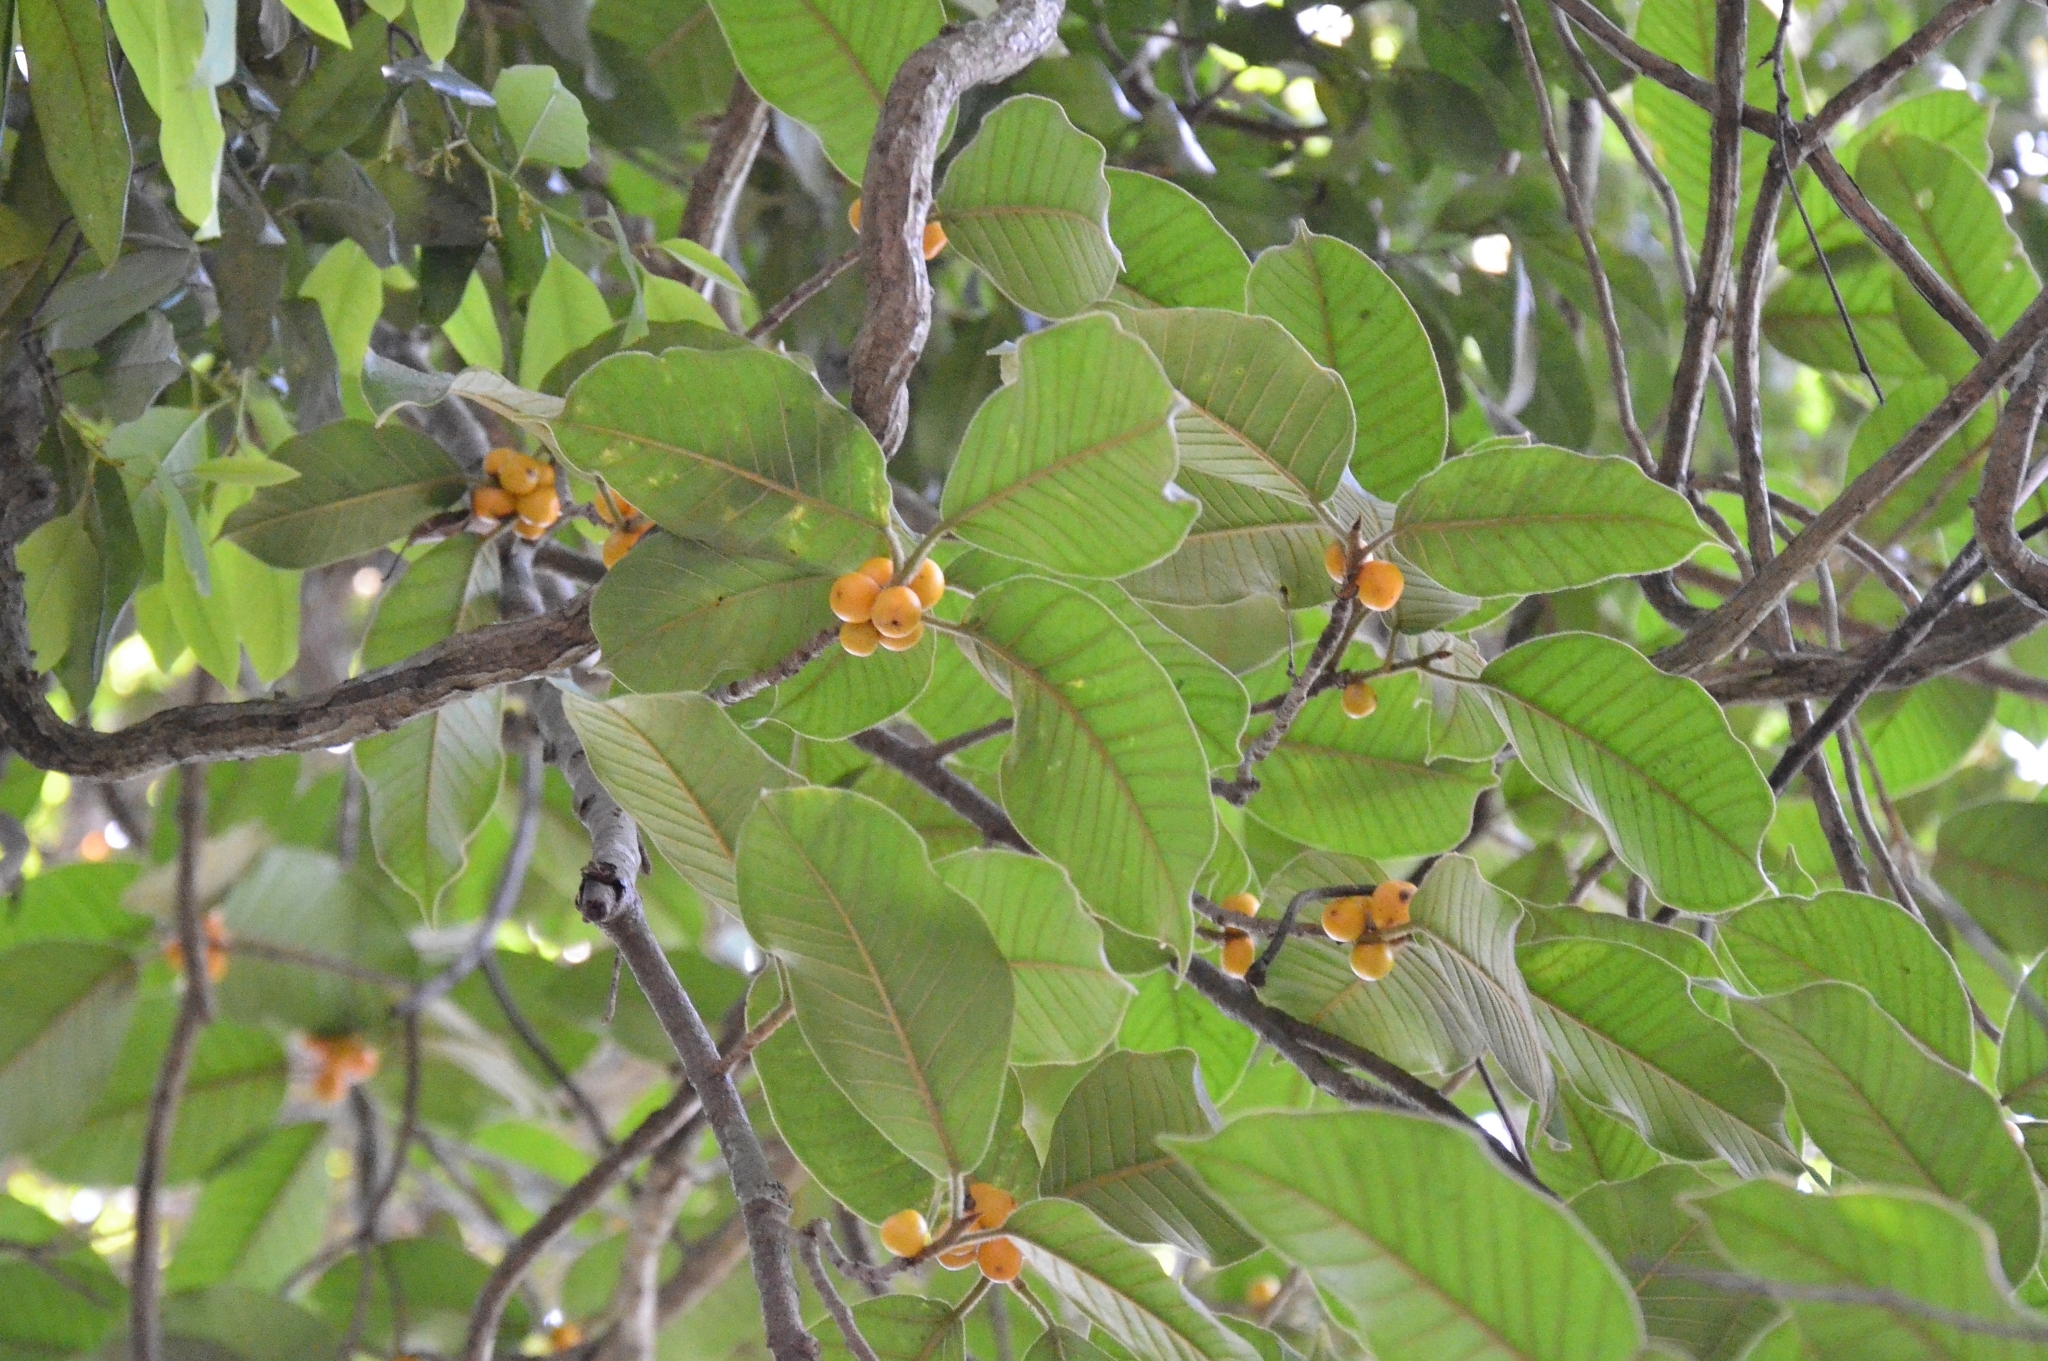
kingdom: Plantae
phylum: Tracheophyta
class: Magnoliopsida
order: Rosales
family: Moraceae
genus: Ficus
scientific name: Ficus drupacea
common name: Drupe fig
